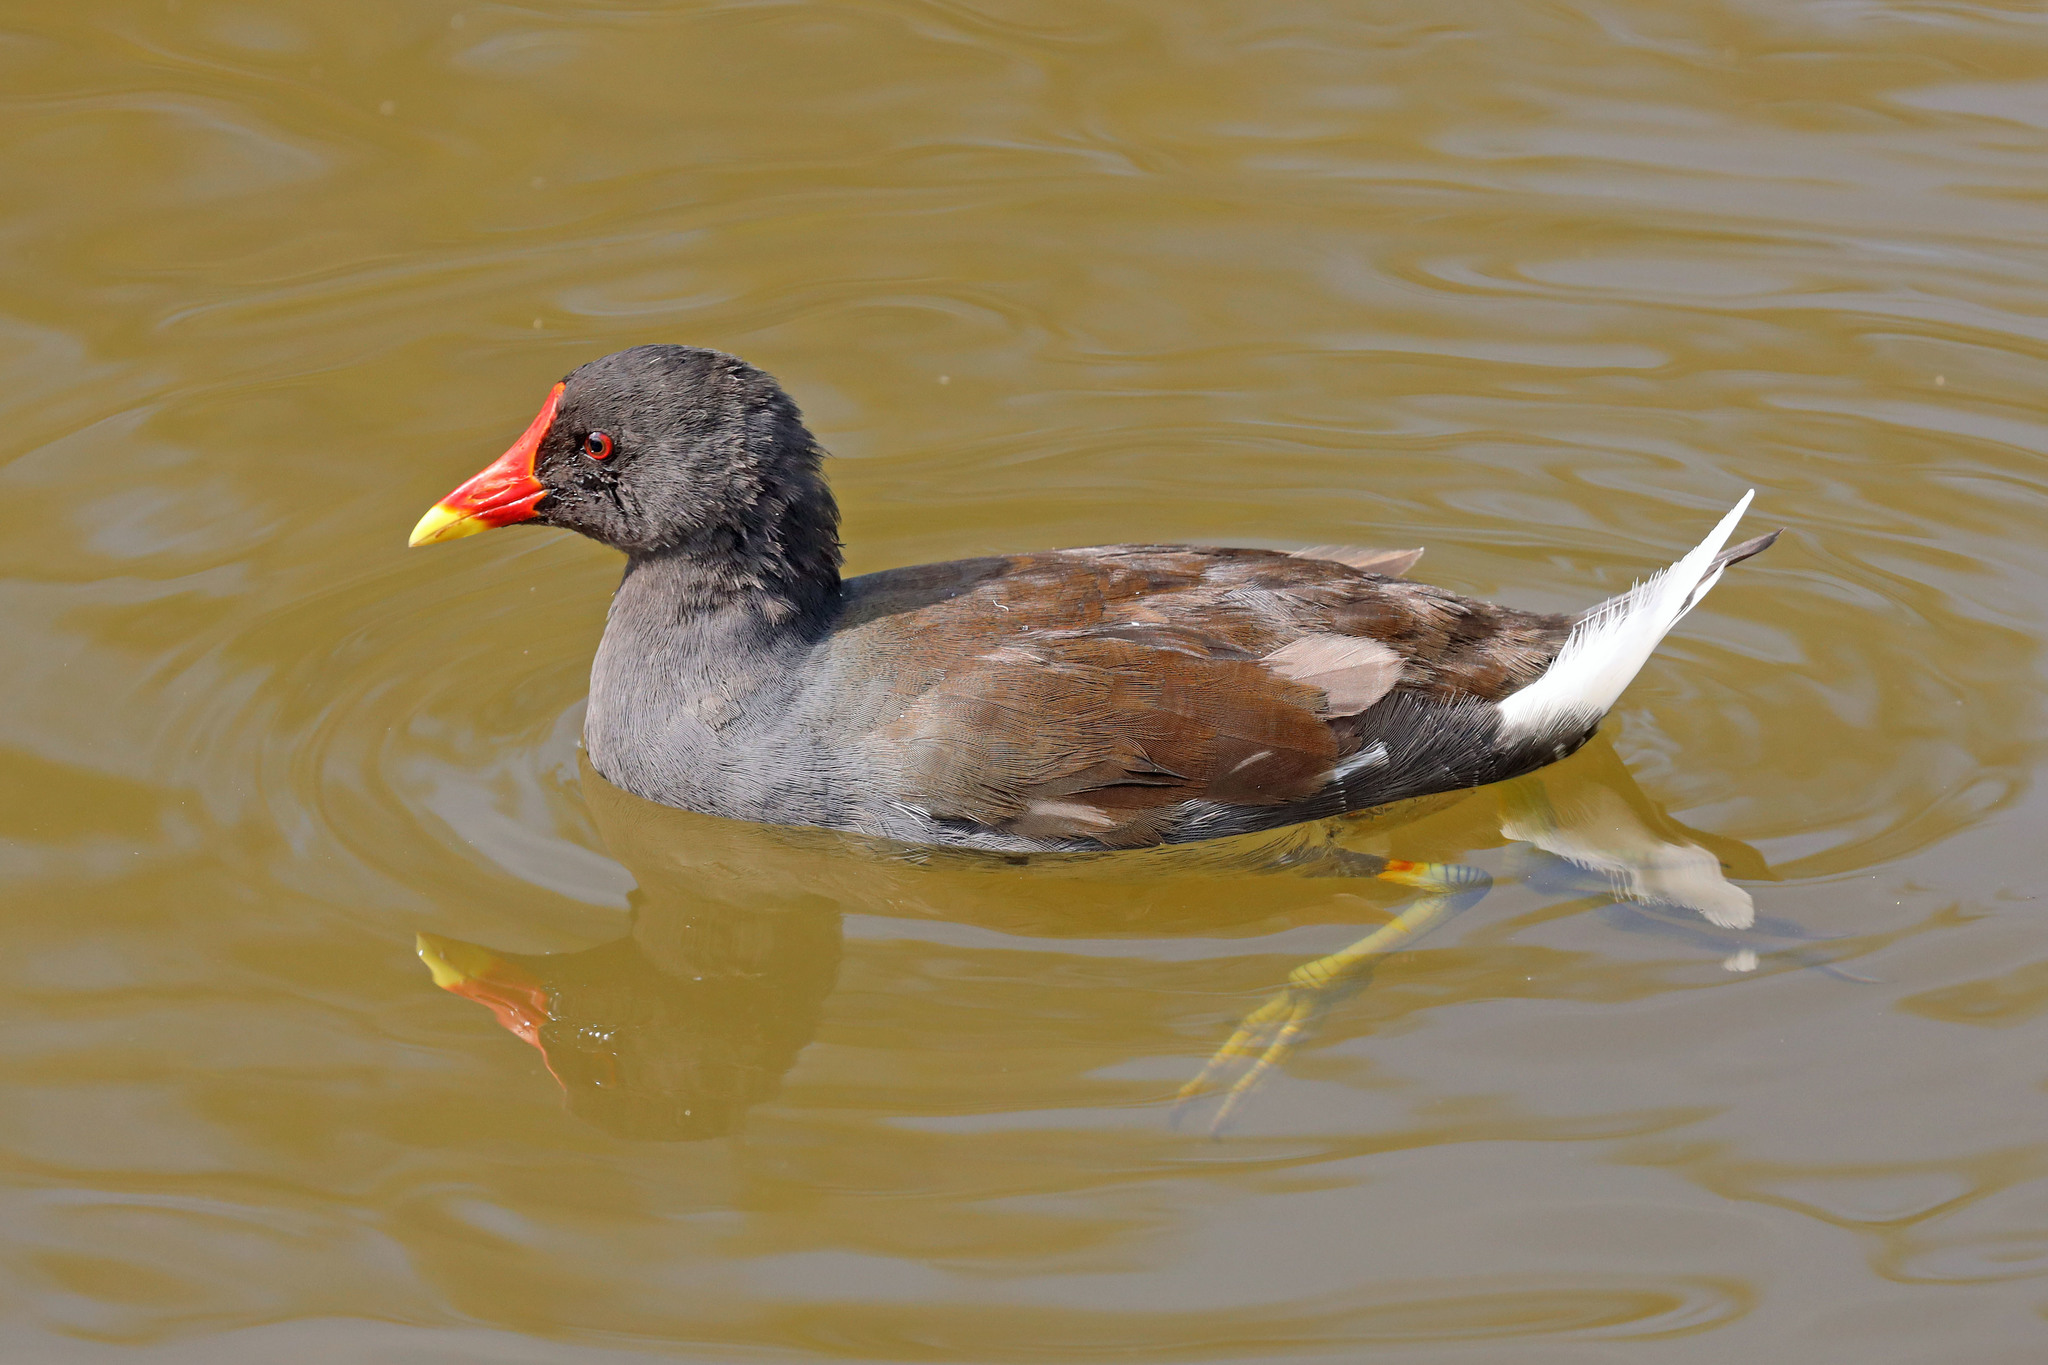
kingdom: Animalia
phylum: Chordata
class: Aves
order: Gruiformes
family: Rallidae
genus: Gallinula
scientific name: Gallinula chloropus
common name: Common moorhen
